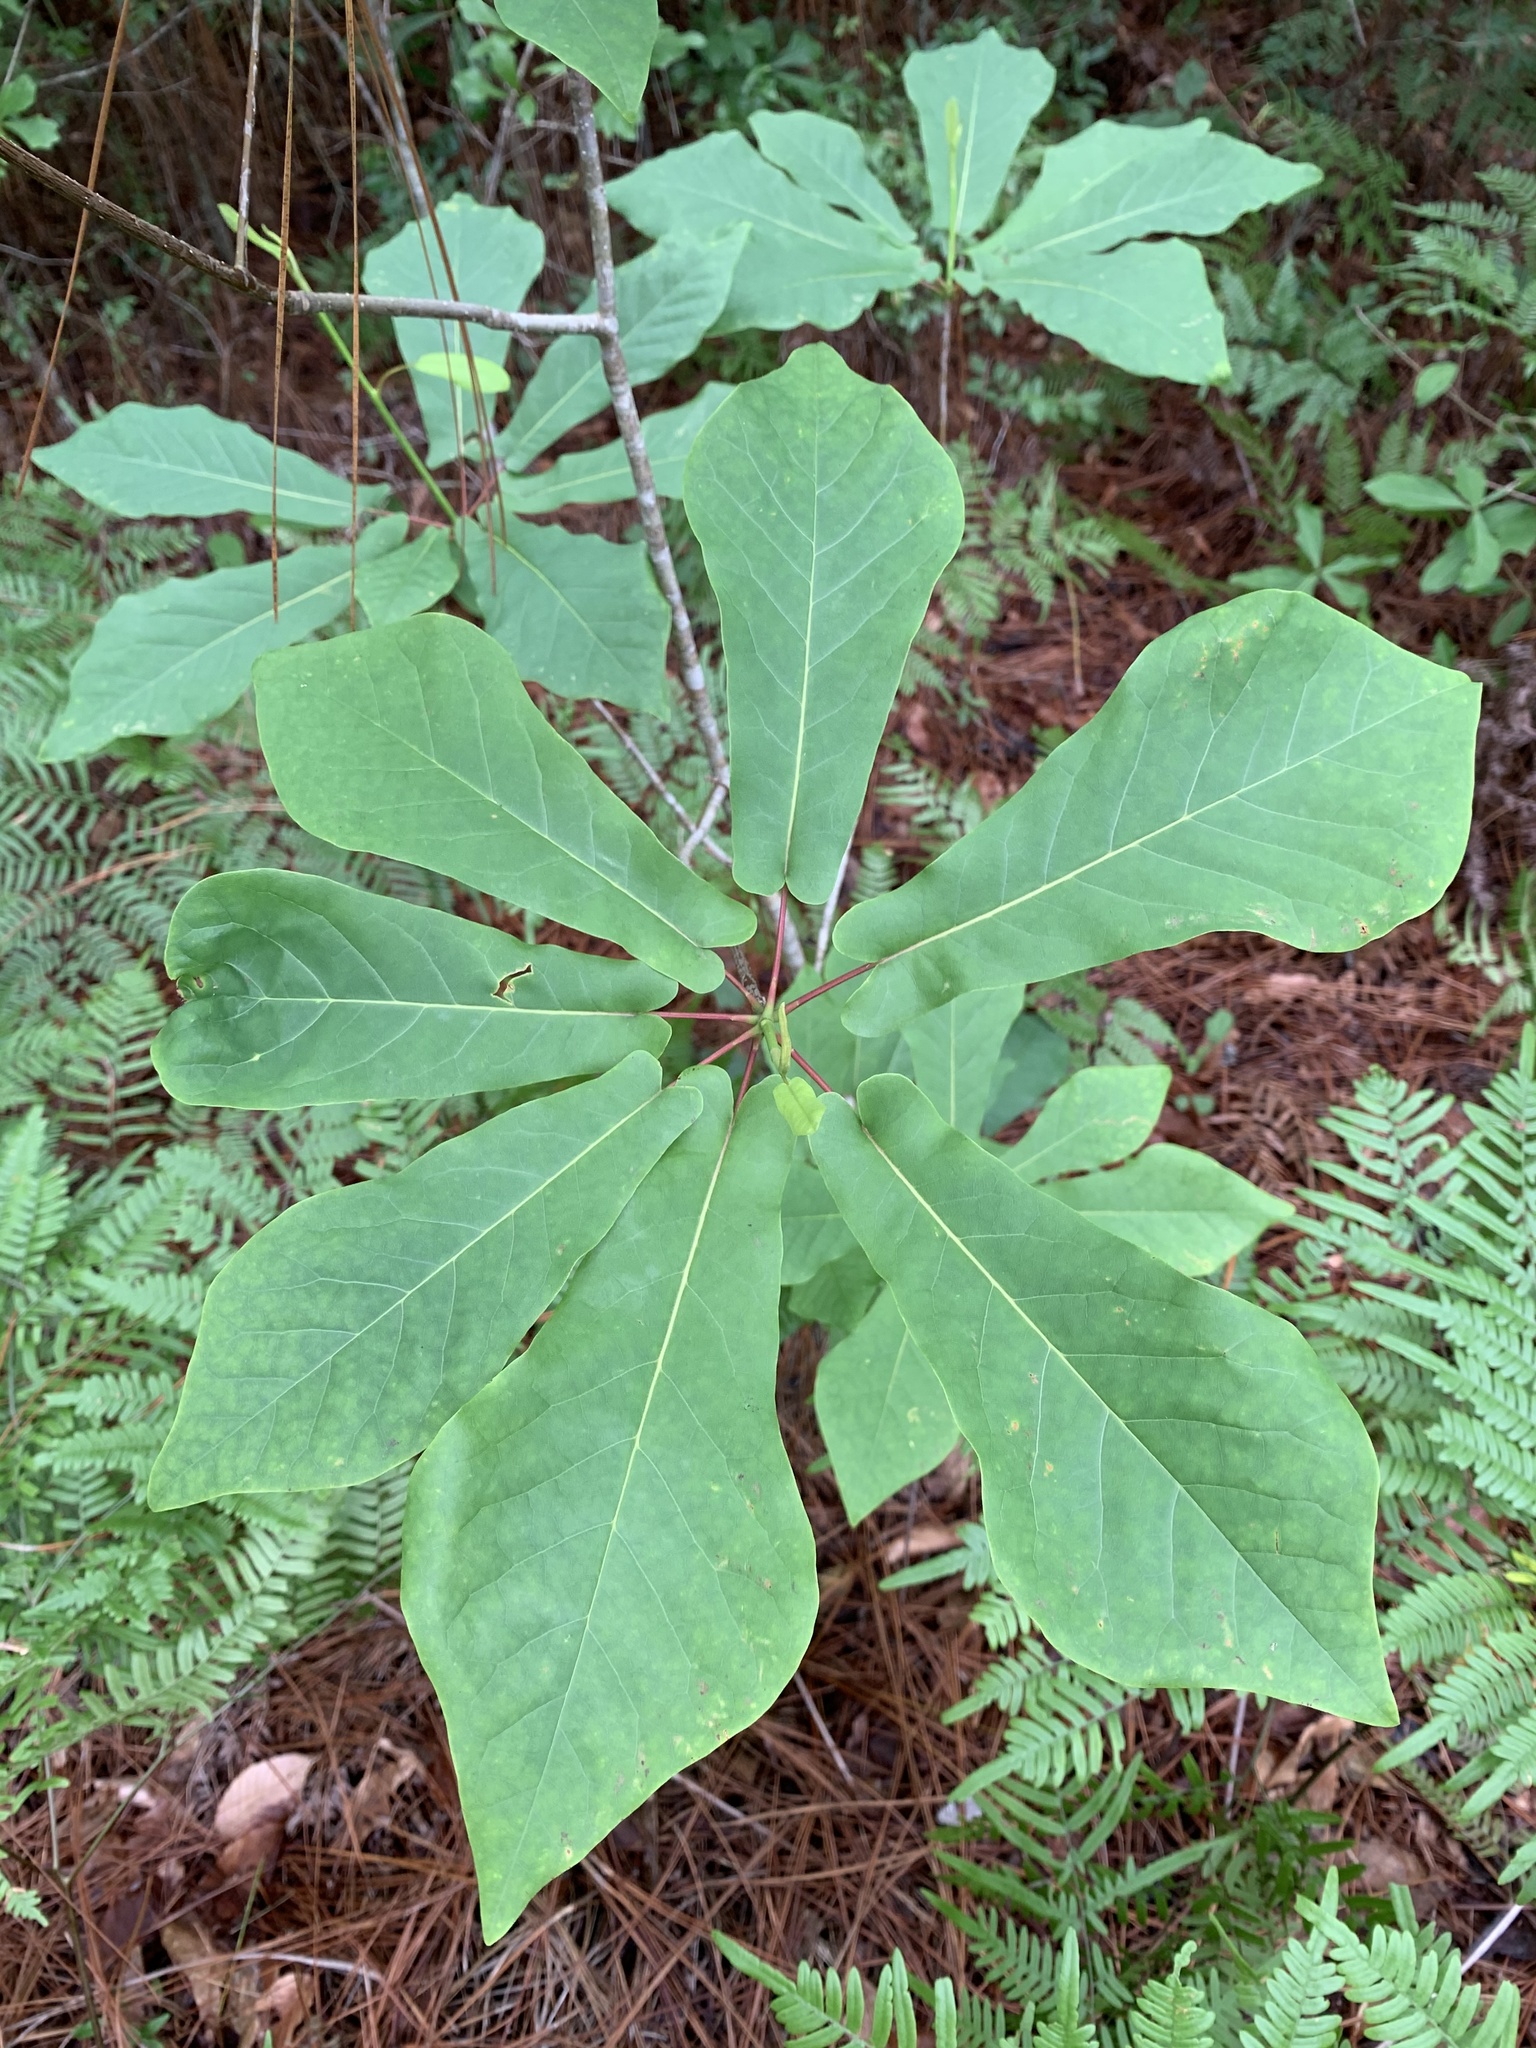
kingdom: Plantae
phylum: Tracheophyta
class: Magnoliopsida
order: Magnoliales
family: Magnoliaceae
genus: Magnolia
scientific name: Magnolia fraseri
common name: Fraser's magnolia
